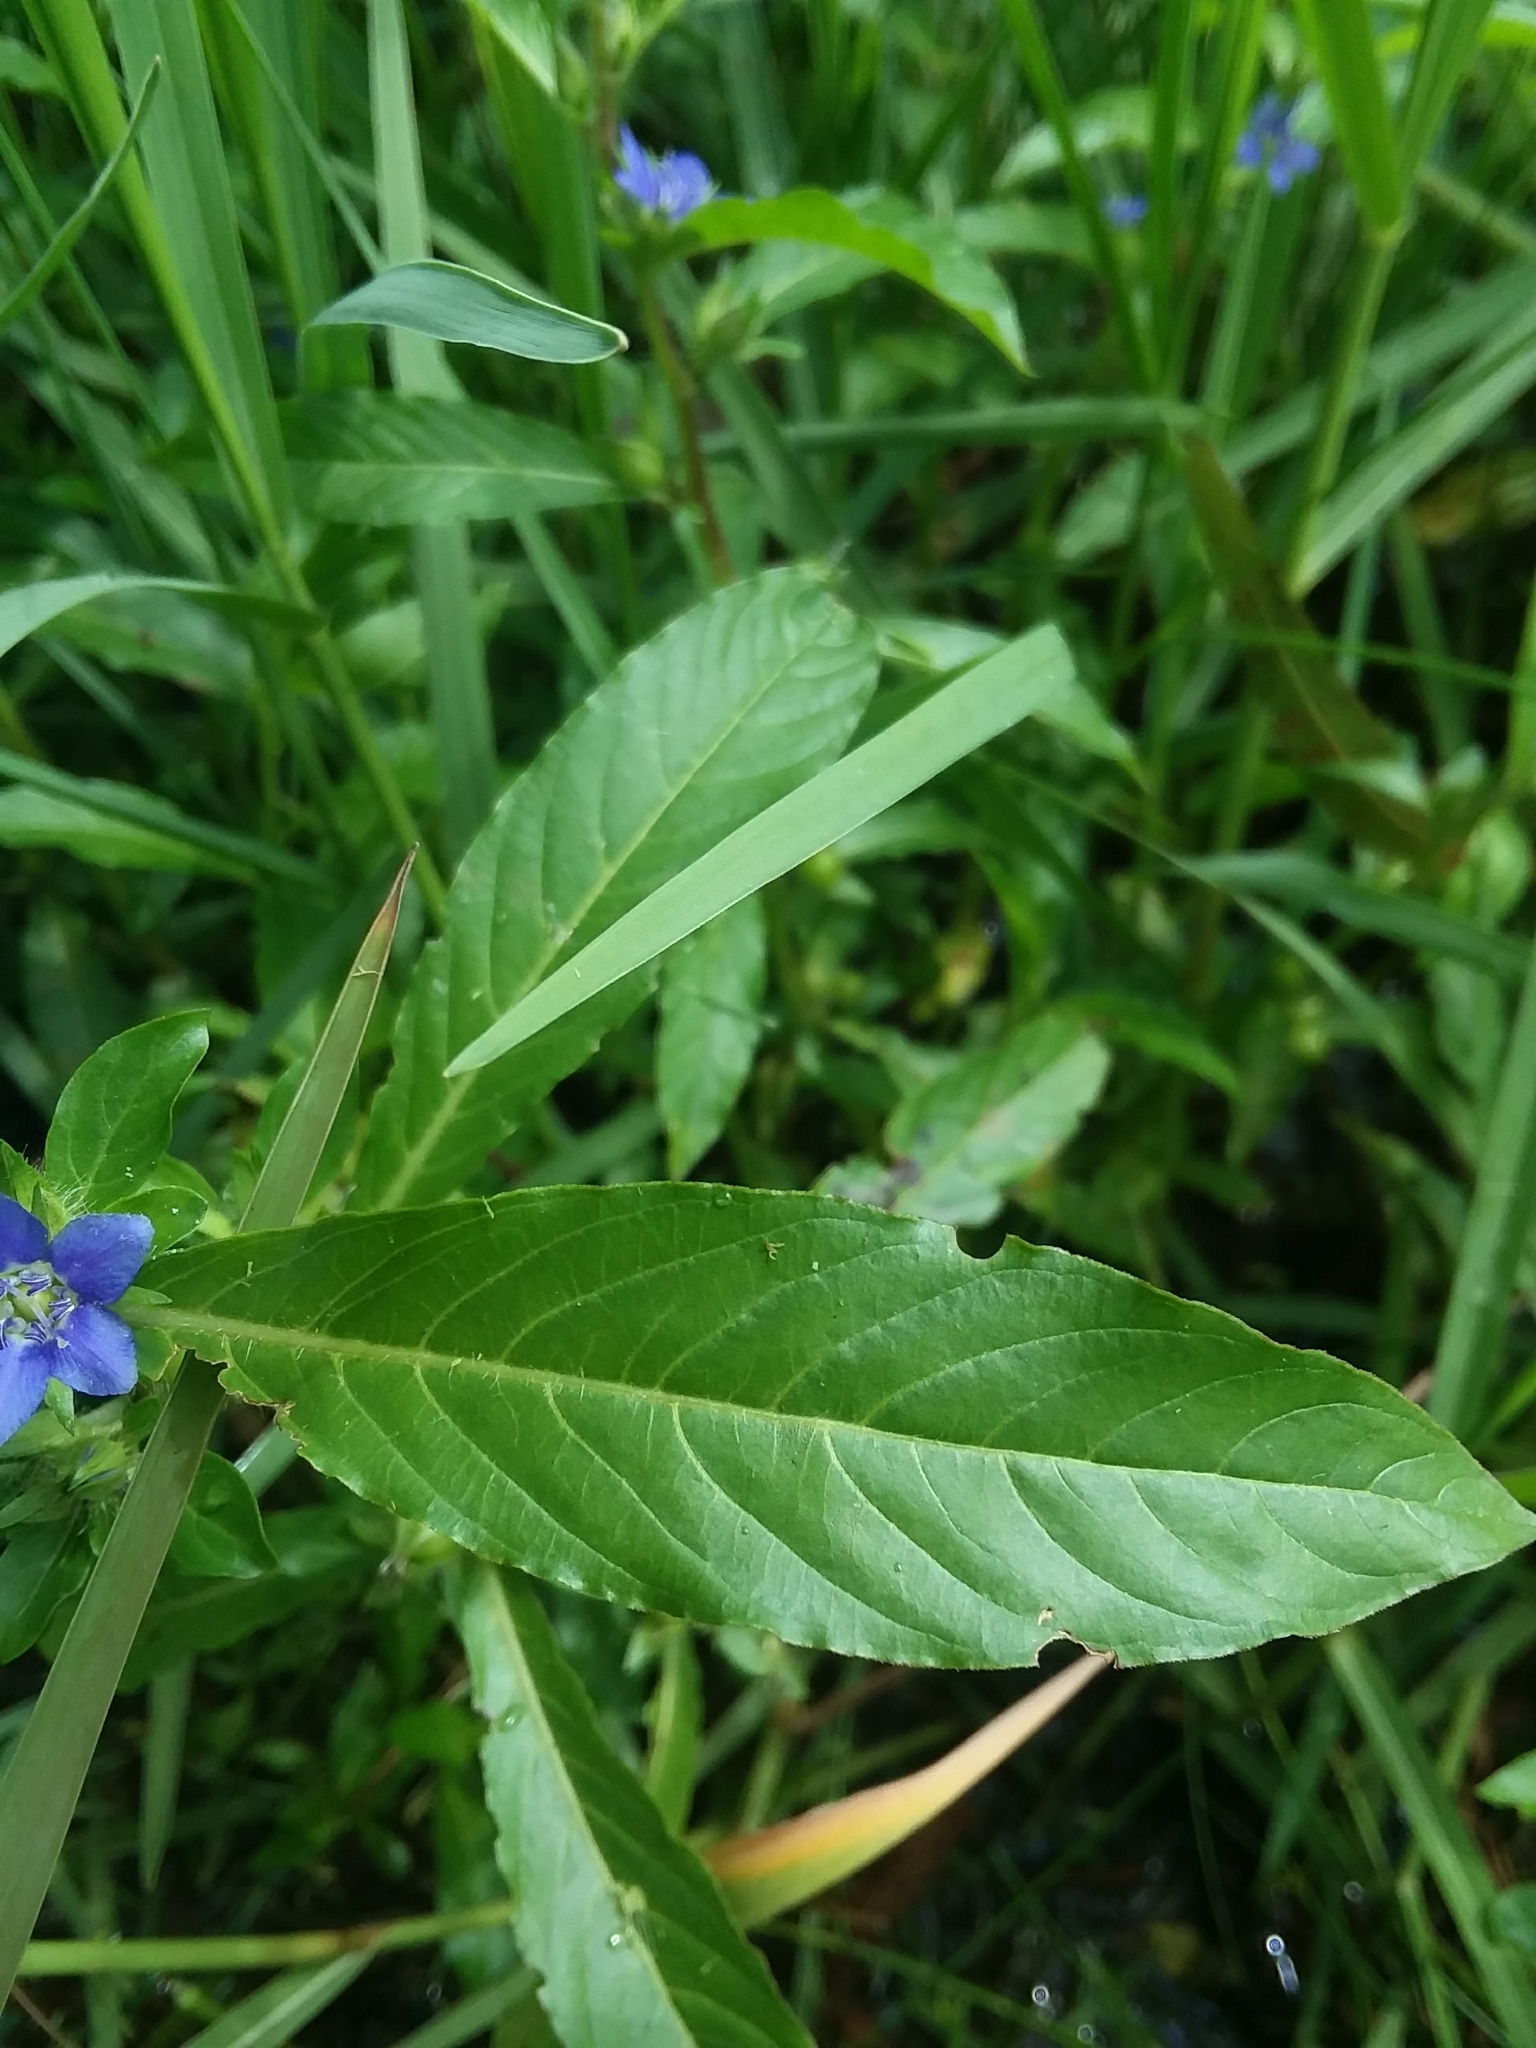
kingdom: Plantae
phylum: Tracheophyta
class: Magnoliopsida
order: Solanales
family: Hydroleaceae
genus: Hydrolea
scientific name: Hydrolea quadrivalvis
